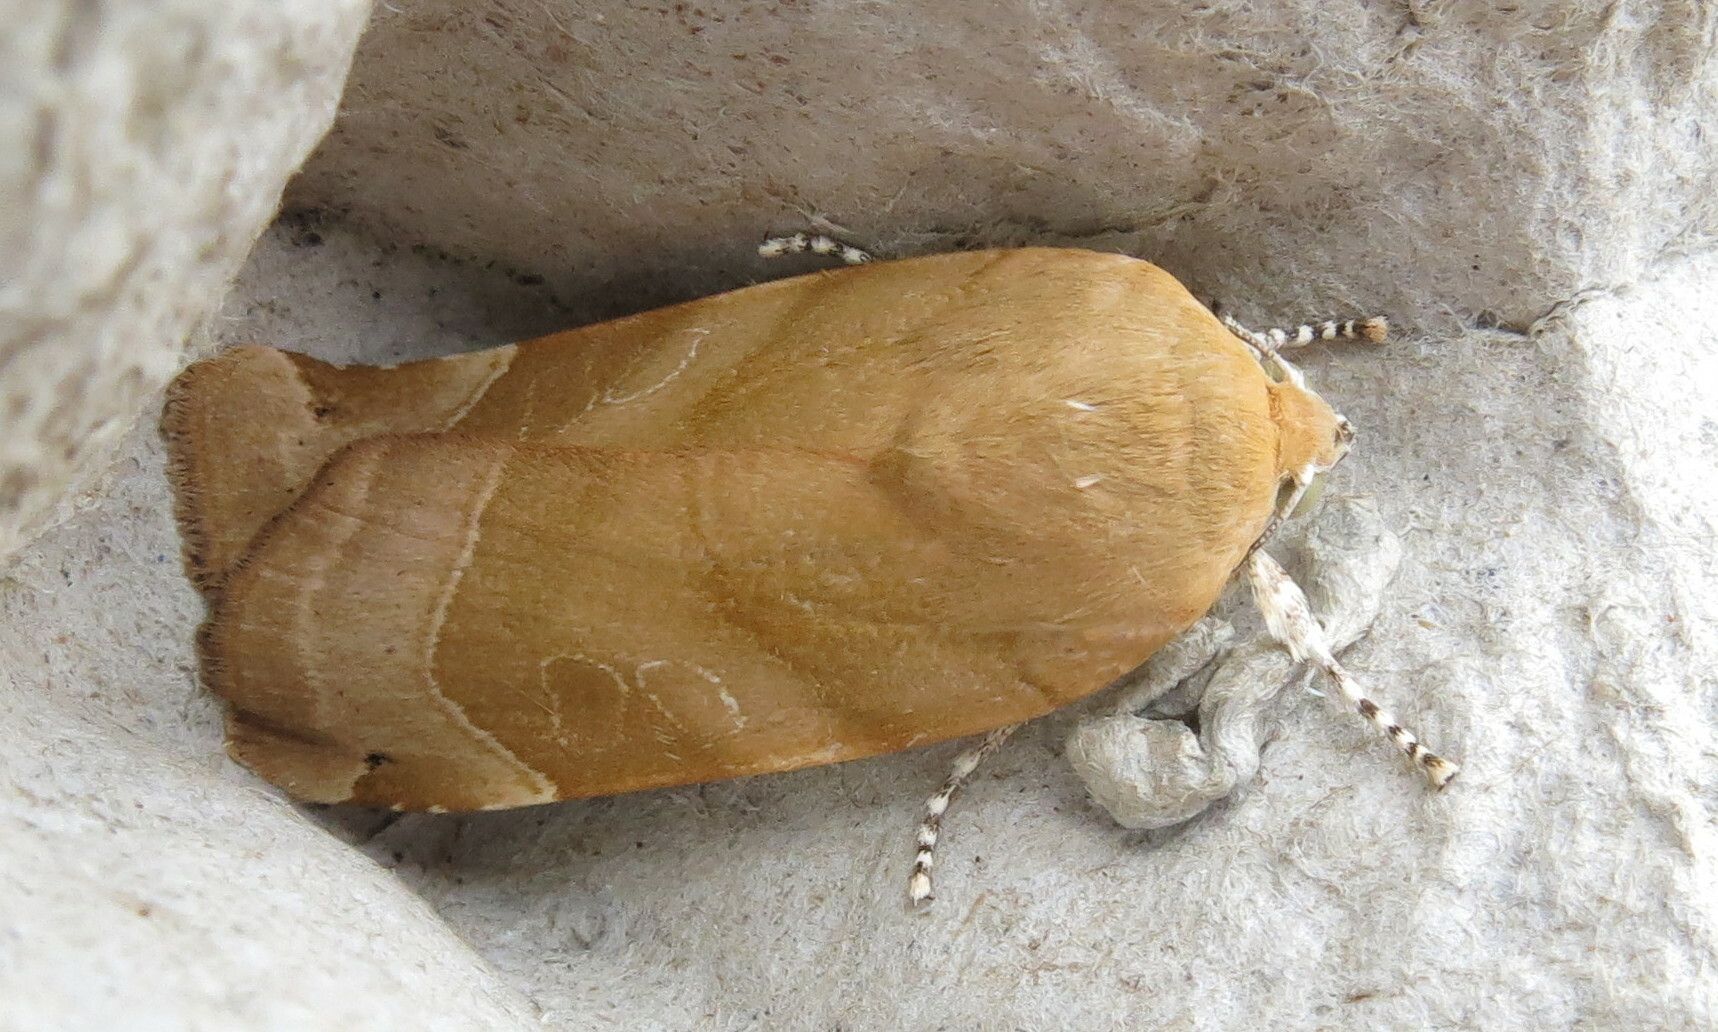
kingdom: Animalia
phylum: Arthropoda
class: Insecta
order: Lepidoptera
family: Noctuidae
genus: Noctua
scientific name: Noctua fimbriata
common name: Broad-bordered yellow underwing
